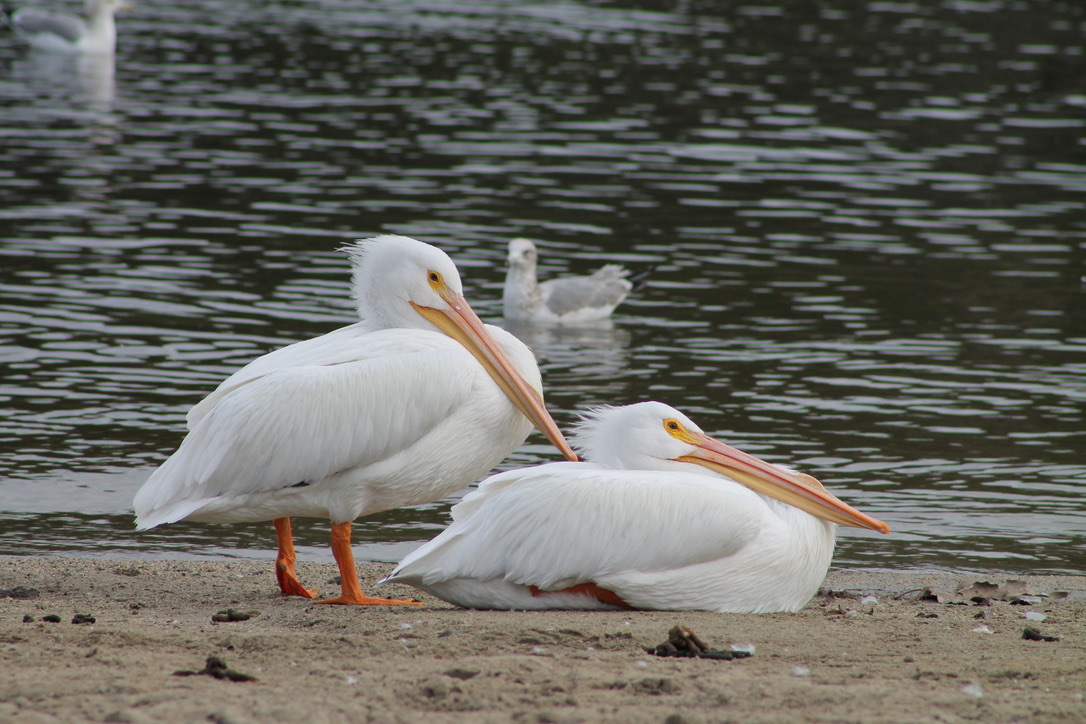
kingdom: Animalia
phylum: Chordata
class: Aves
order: Pelecaniformes
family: Pelecanidae
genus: Pelecanus
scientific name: Pelecanus erythrorhynchos
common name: American white pelican
